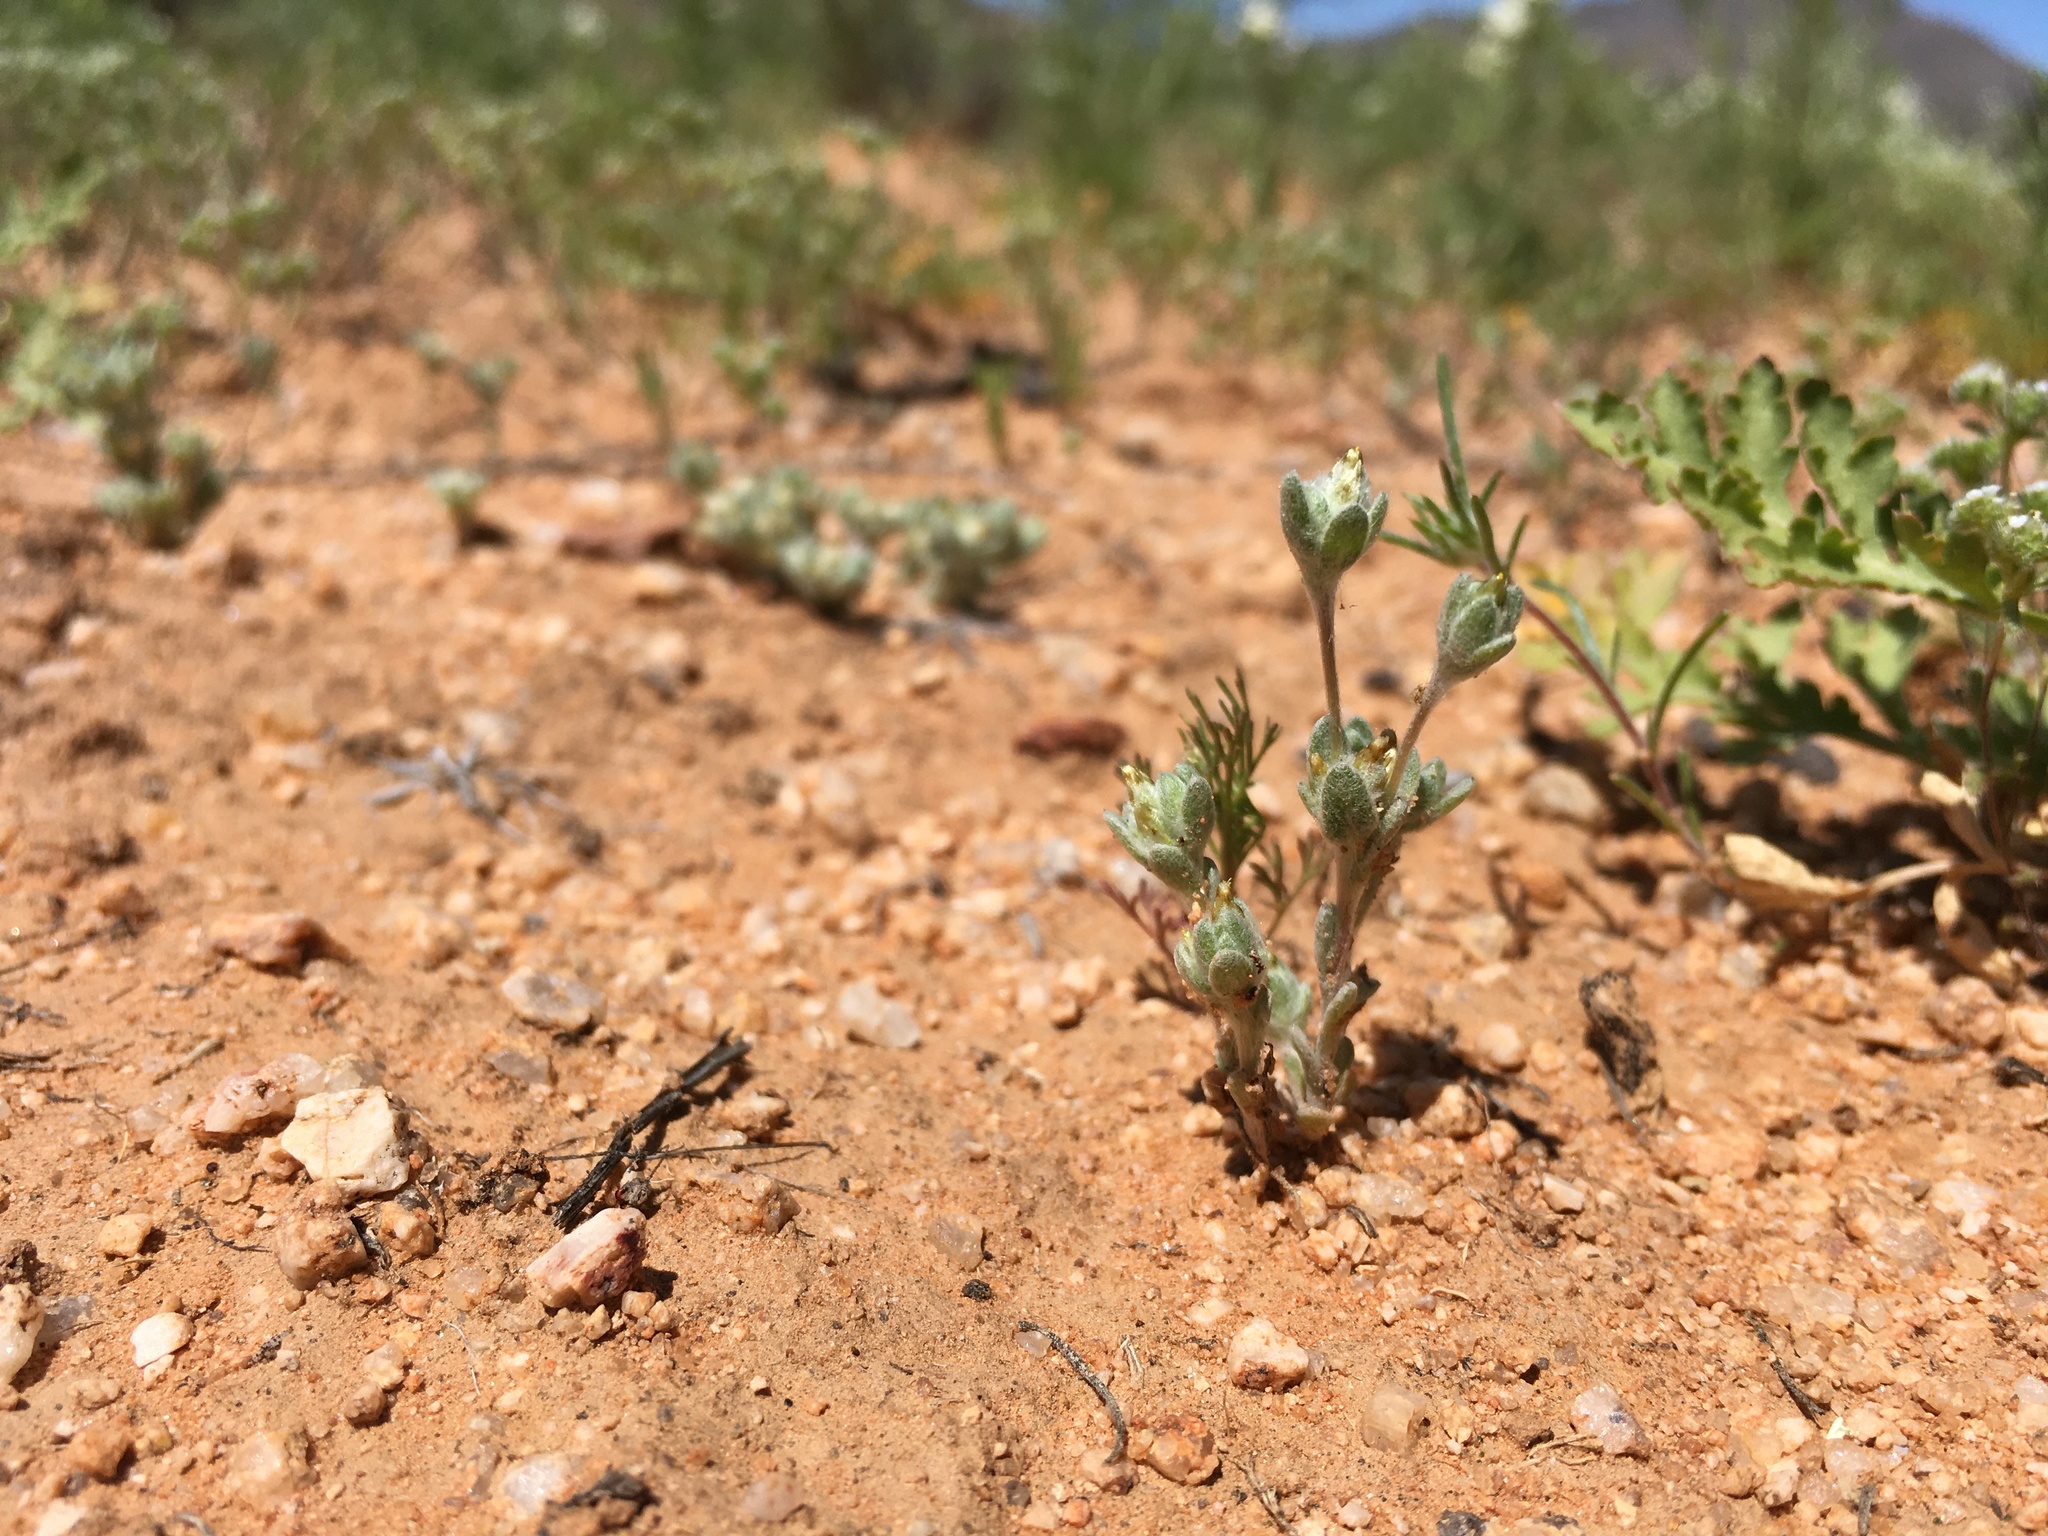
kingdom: Plantae
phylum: Tracheophyta
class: Magnoliopsida
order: Asterales
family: Asteraceae
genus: Logfia
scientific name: Logfia depressa
